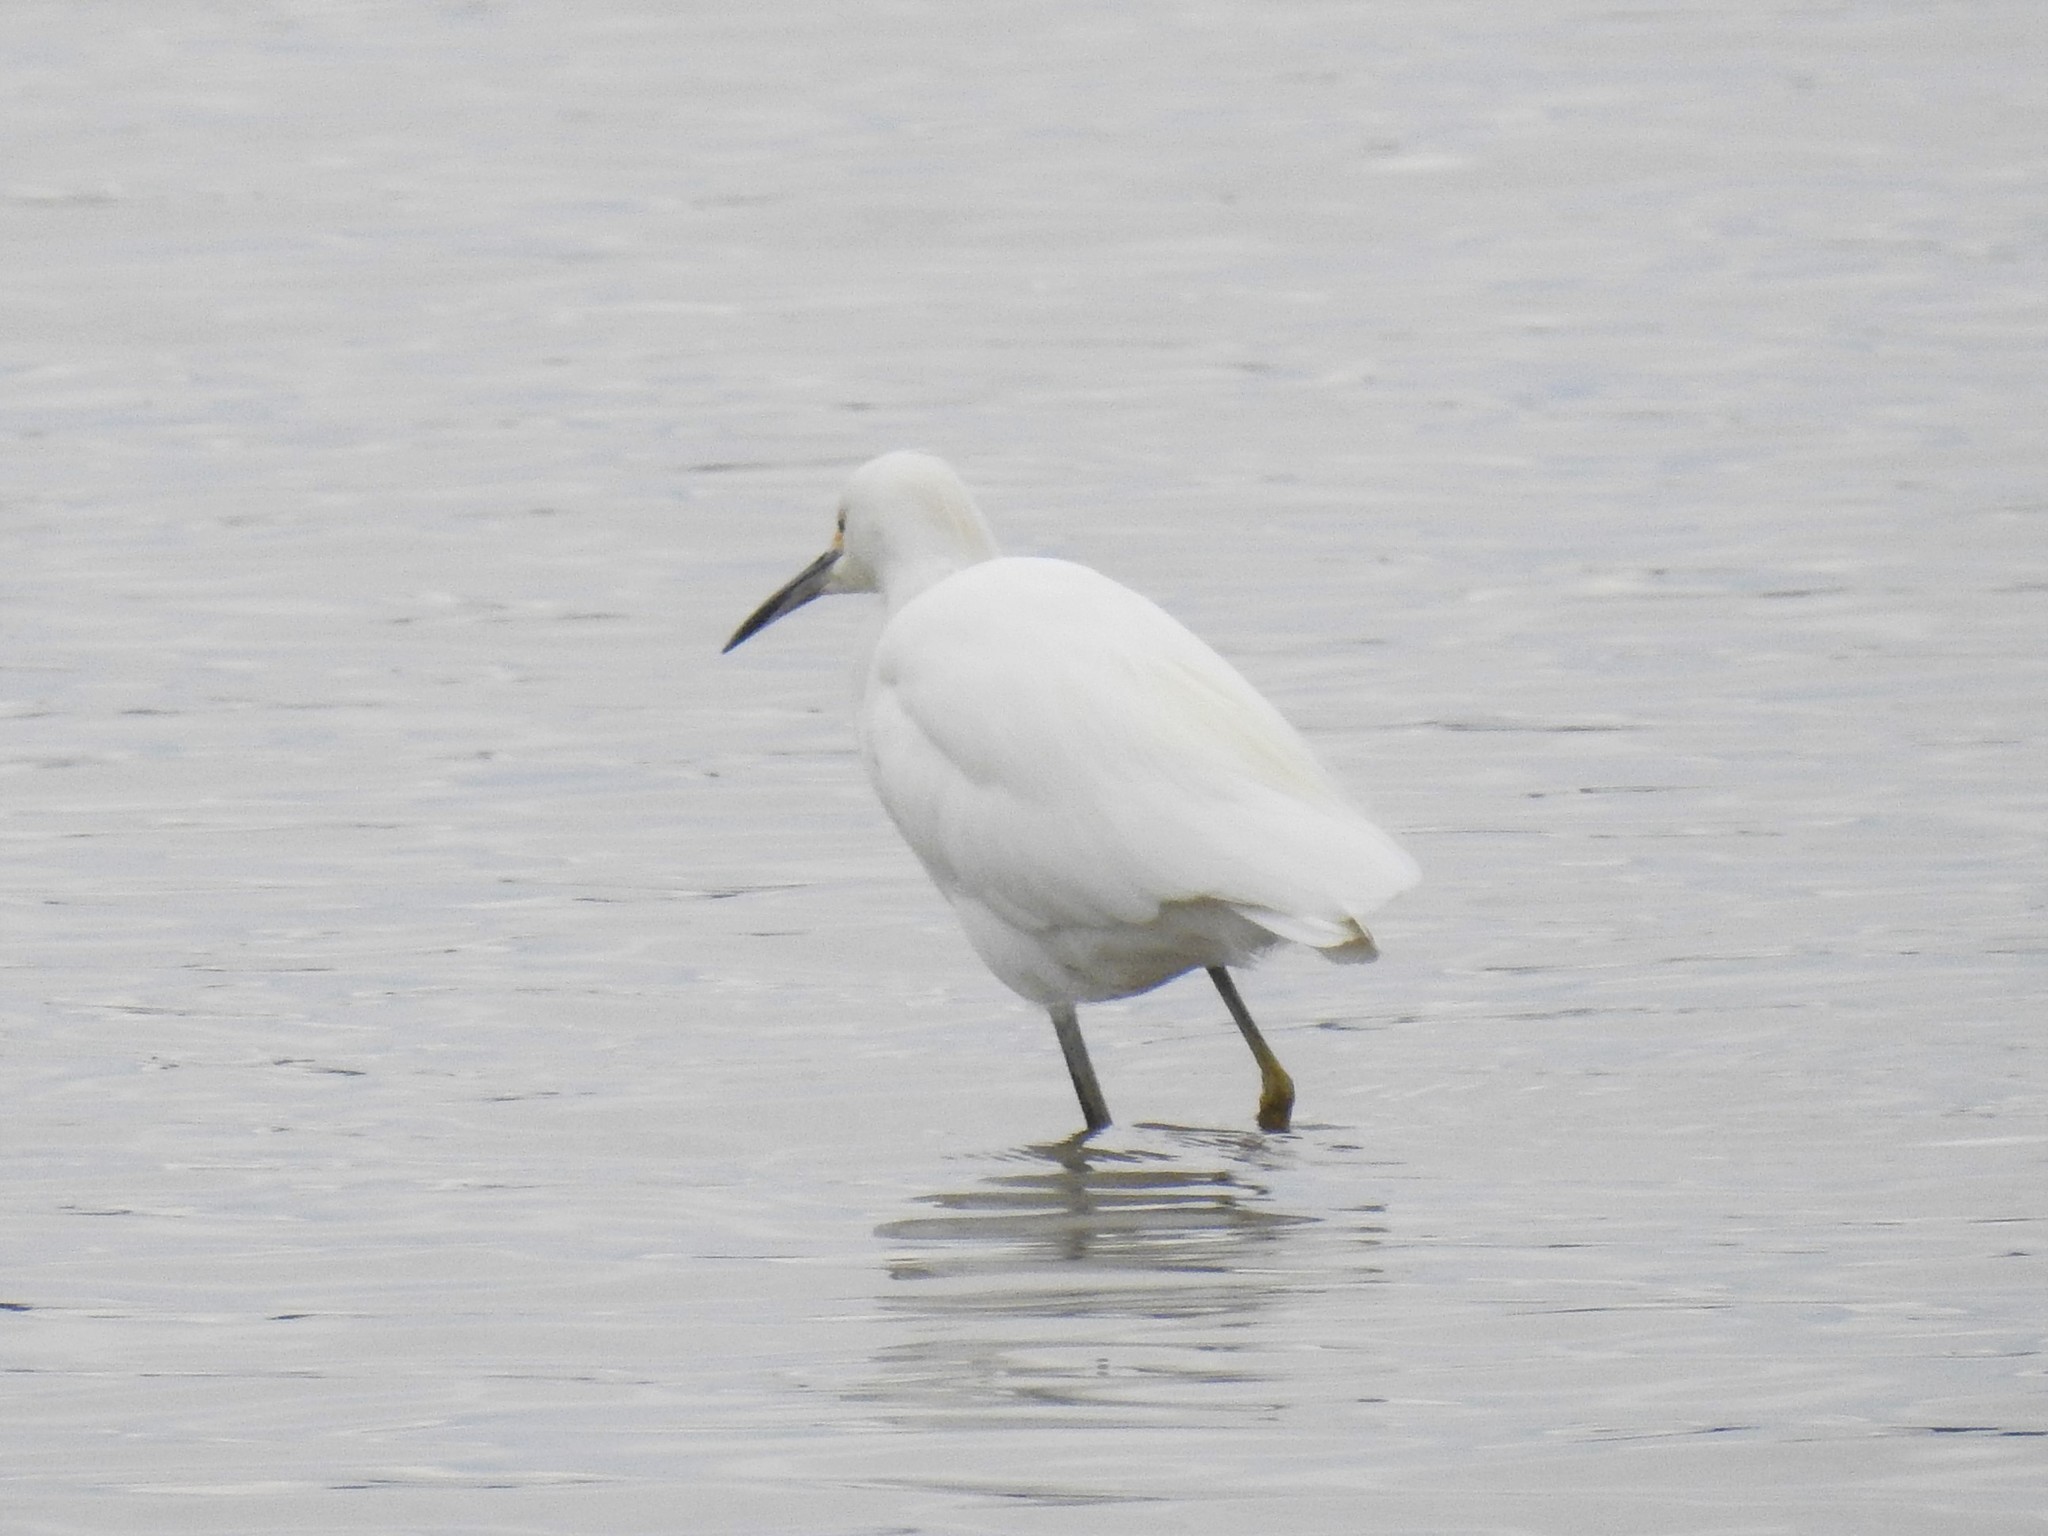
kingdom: Animalia
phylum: Chordata
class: Aves
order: Pelecaniformes
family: Ardeidae
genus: Egretta
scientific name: Egretta thula
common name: Snowy egret
